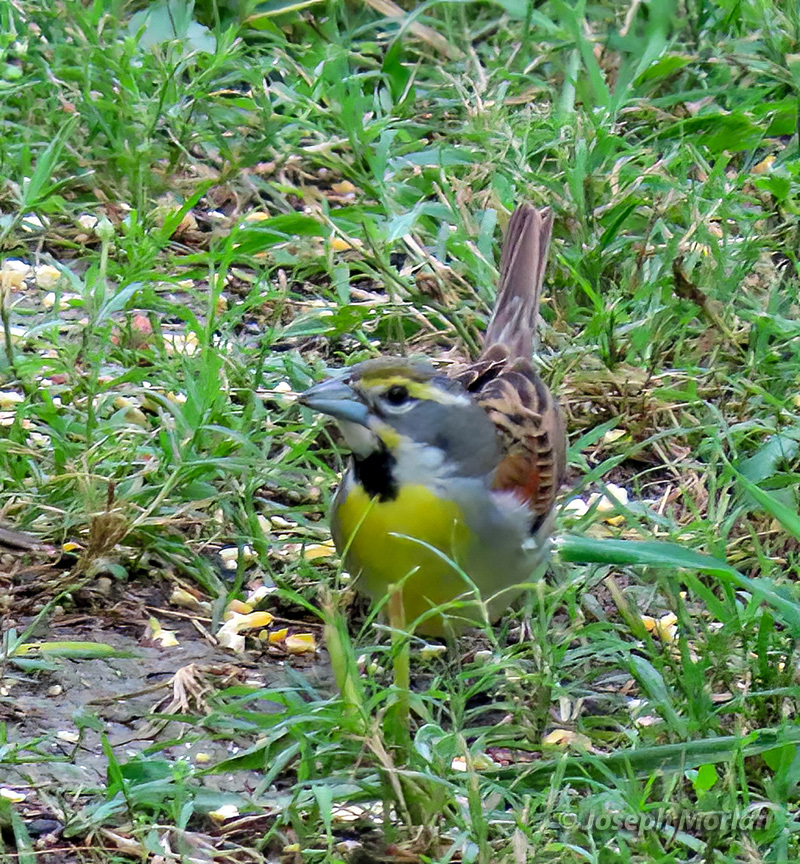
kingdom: Animalia
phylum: Chordata
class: Aves
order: Passeriformes
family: Cardinalidae
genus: Spiza
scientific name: Spiza americana
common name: Dickcissel
